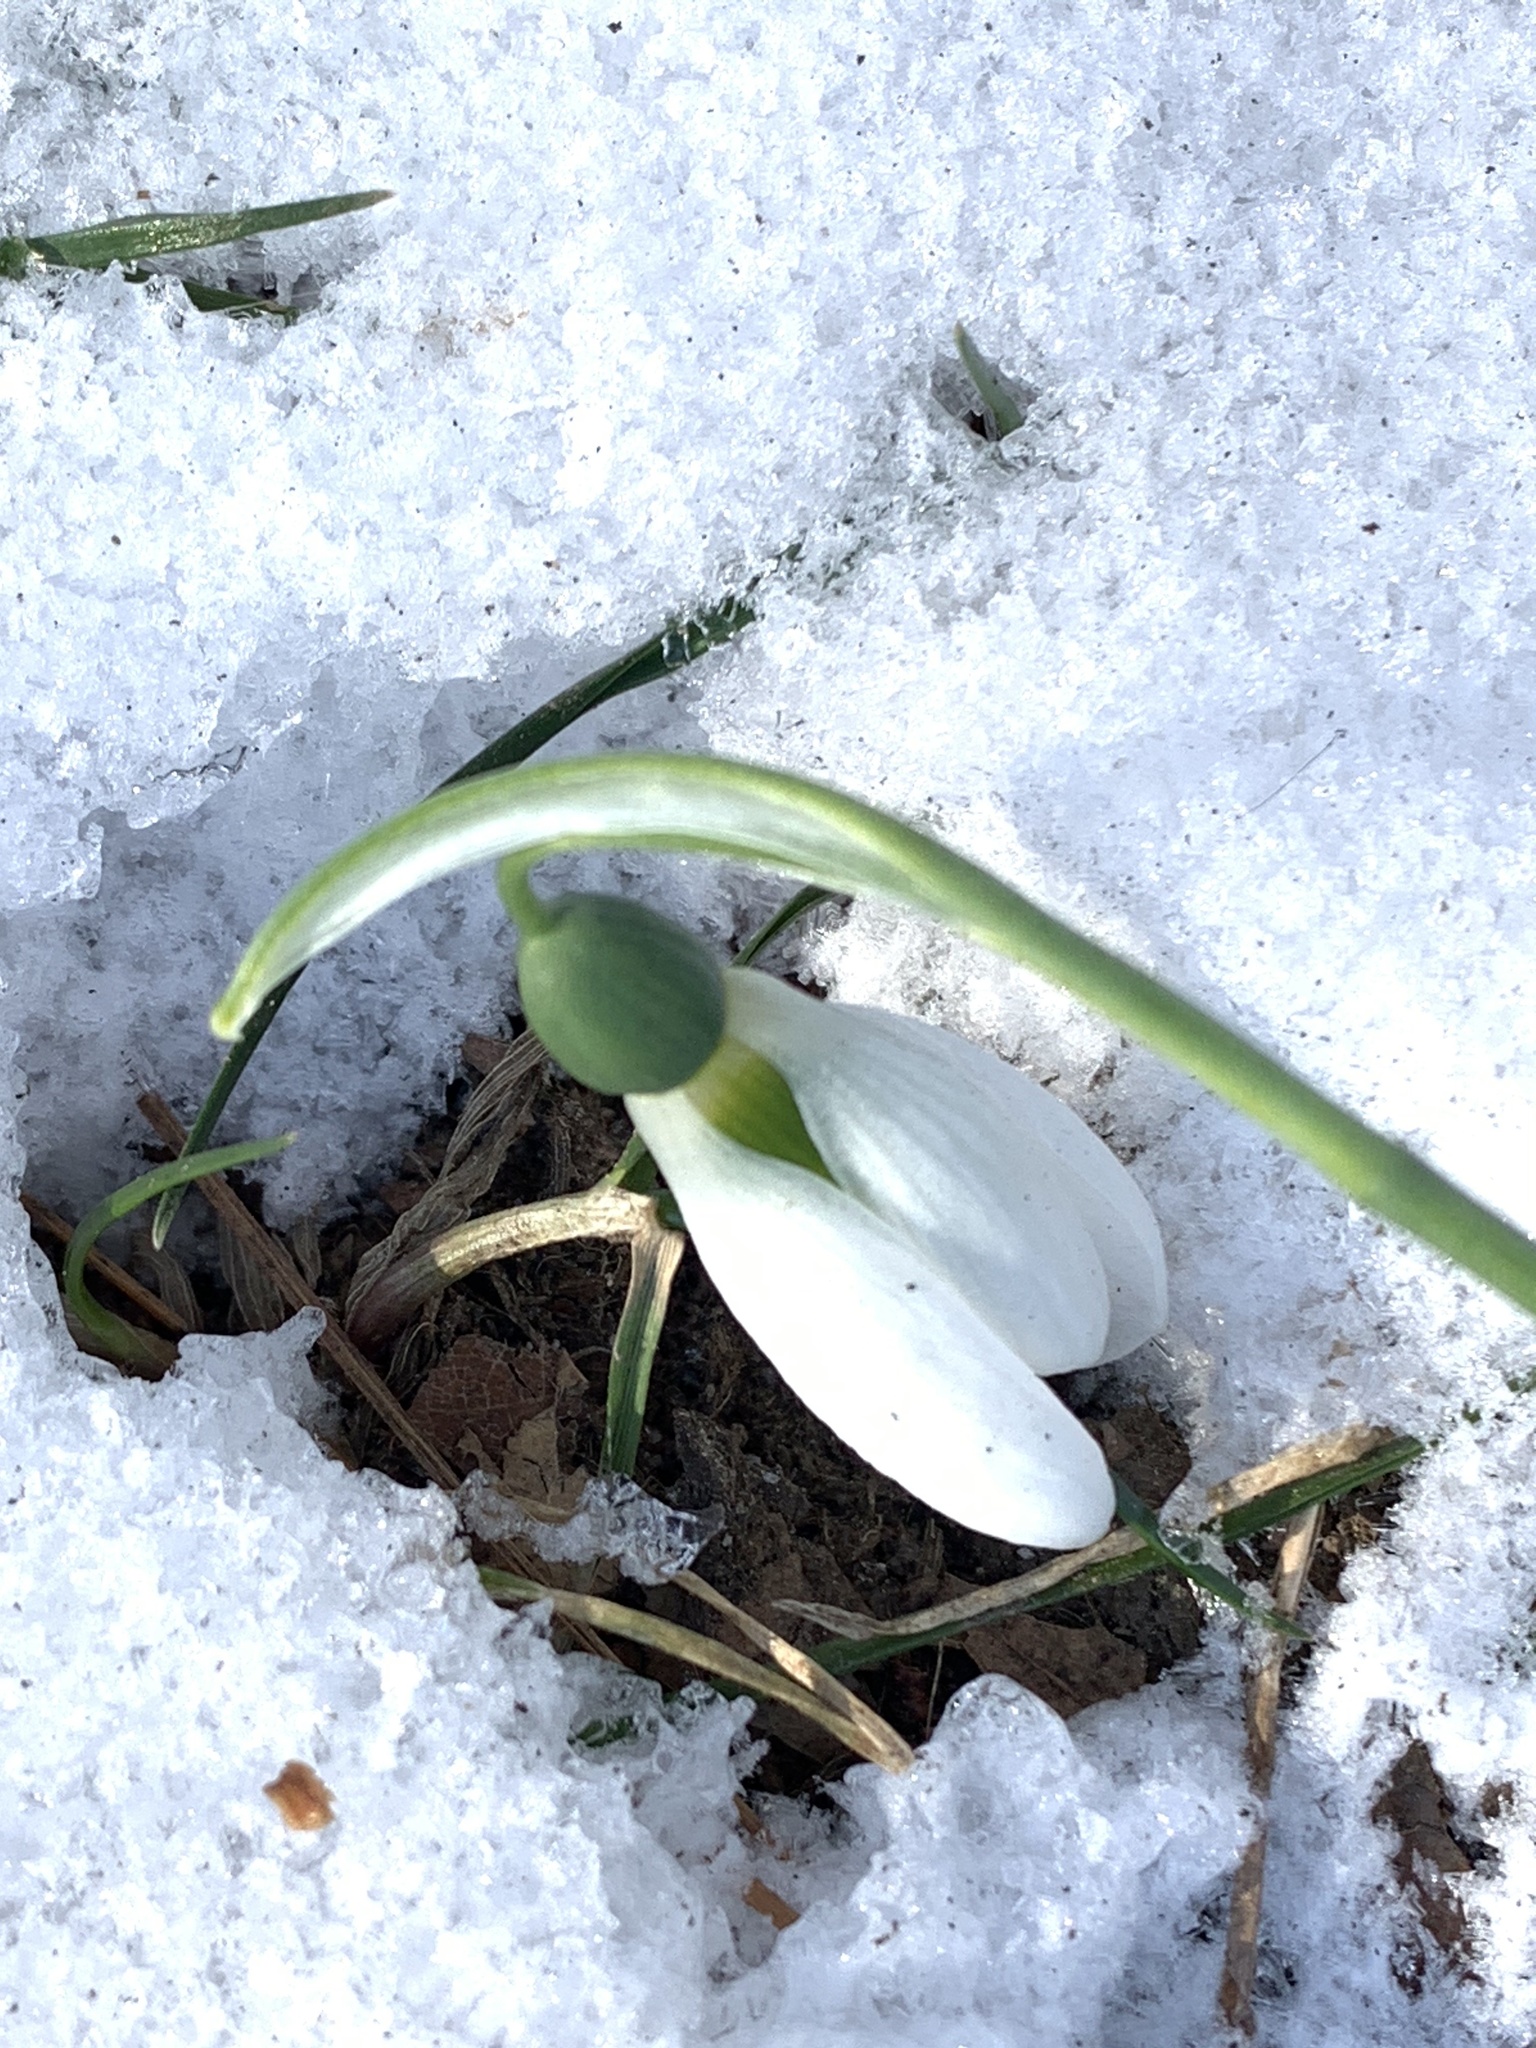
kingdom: Plantae
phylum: Tracheophyta
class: Liliopsida
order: Asparagales
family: Amaryllidaceae
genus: Galanthus
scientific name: Galanthus elwesii
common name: Greater snowdrop
